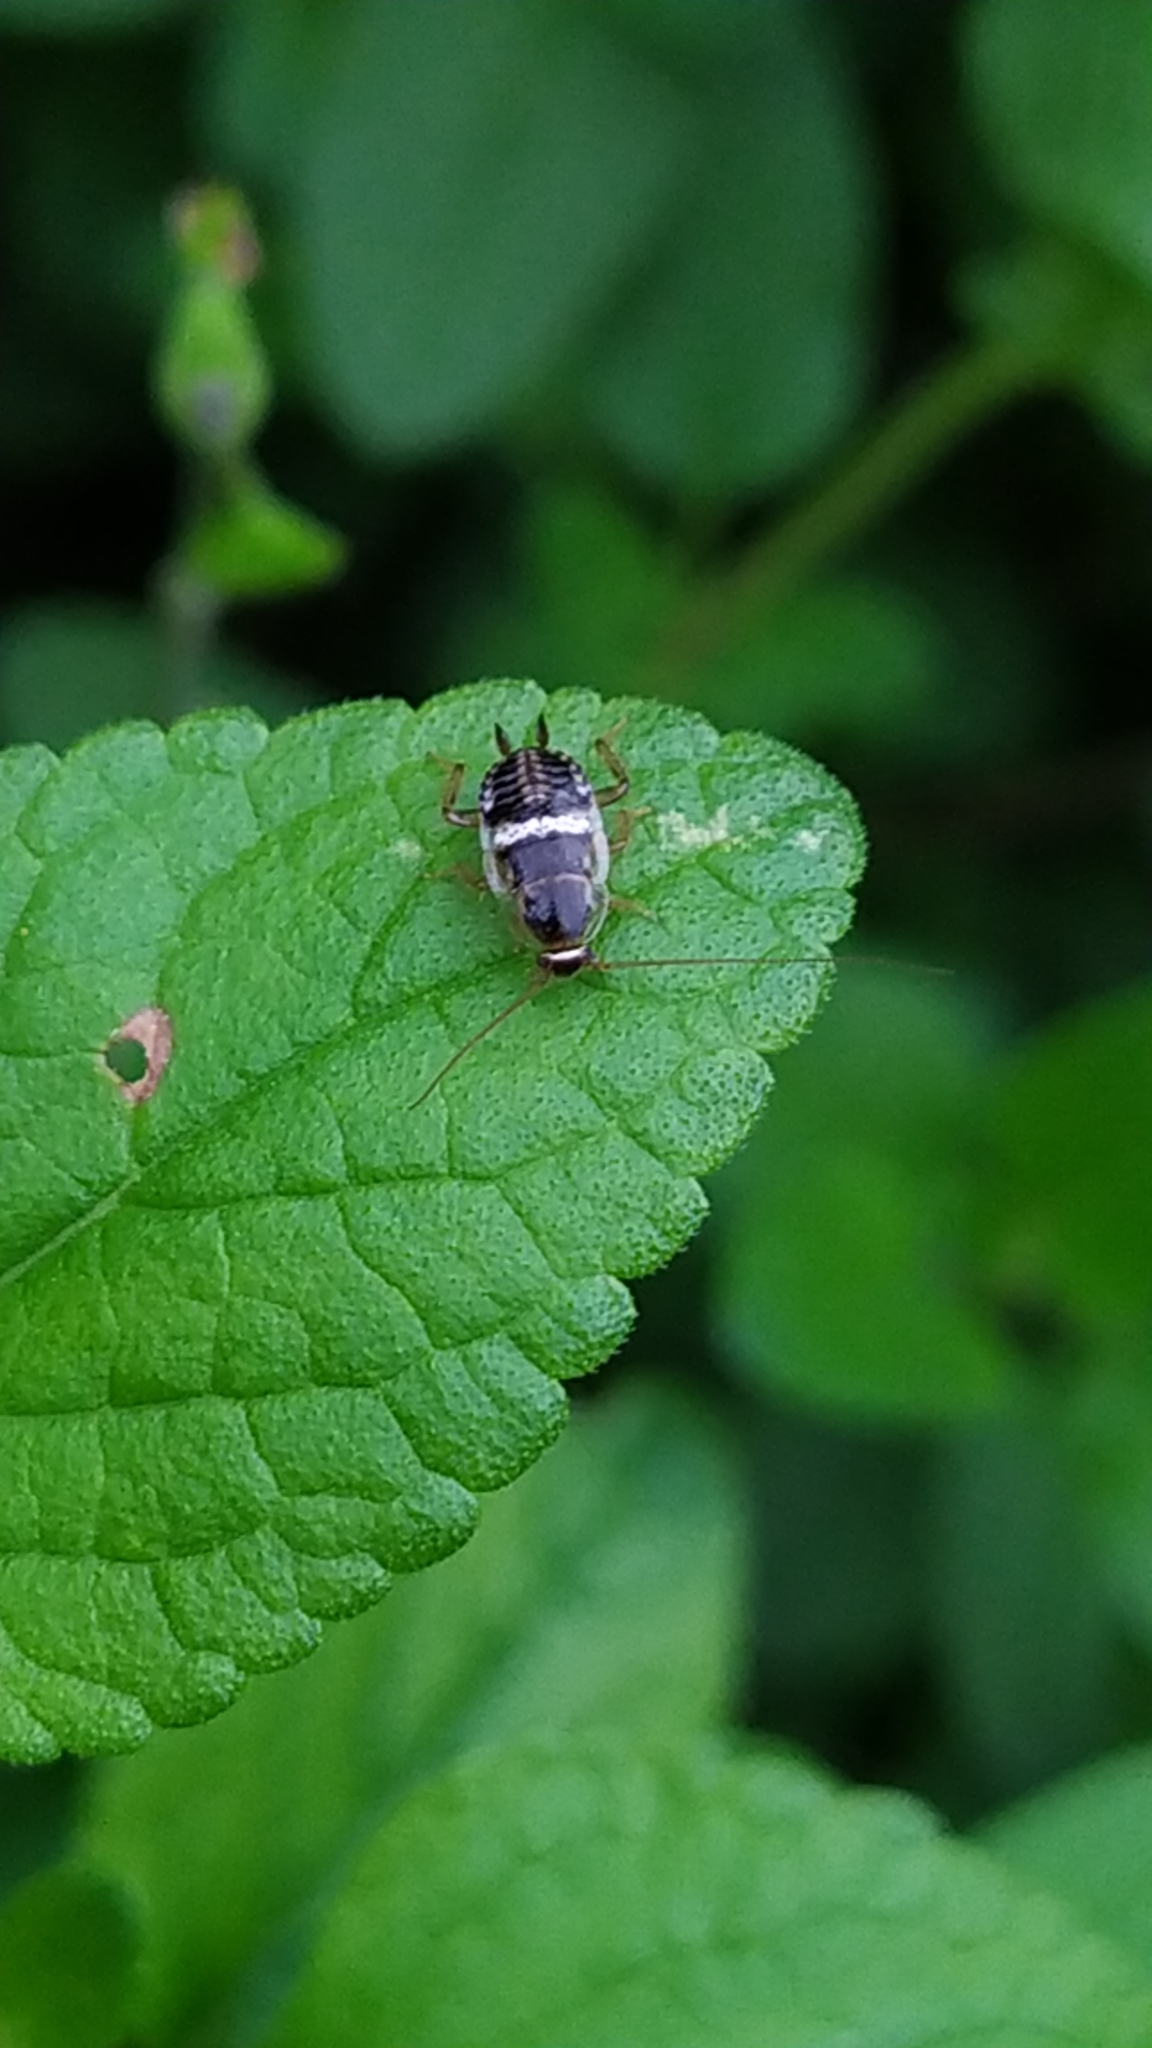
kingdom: Animalia
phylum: Arthropoda
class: Insecta
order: Blattodea
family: Ectobiidae
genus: Planuncus
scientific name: Planuncus vinzi
